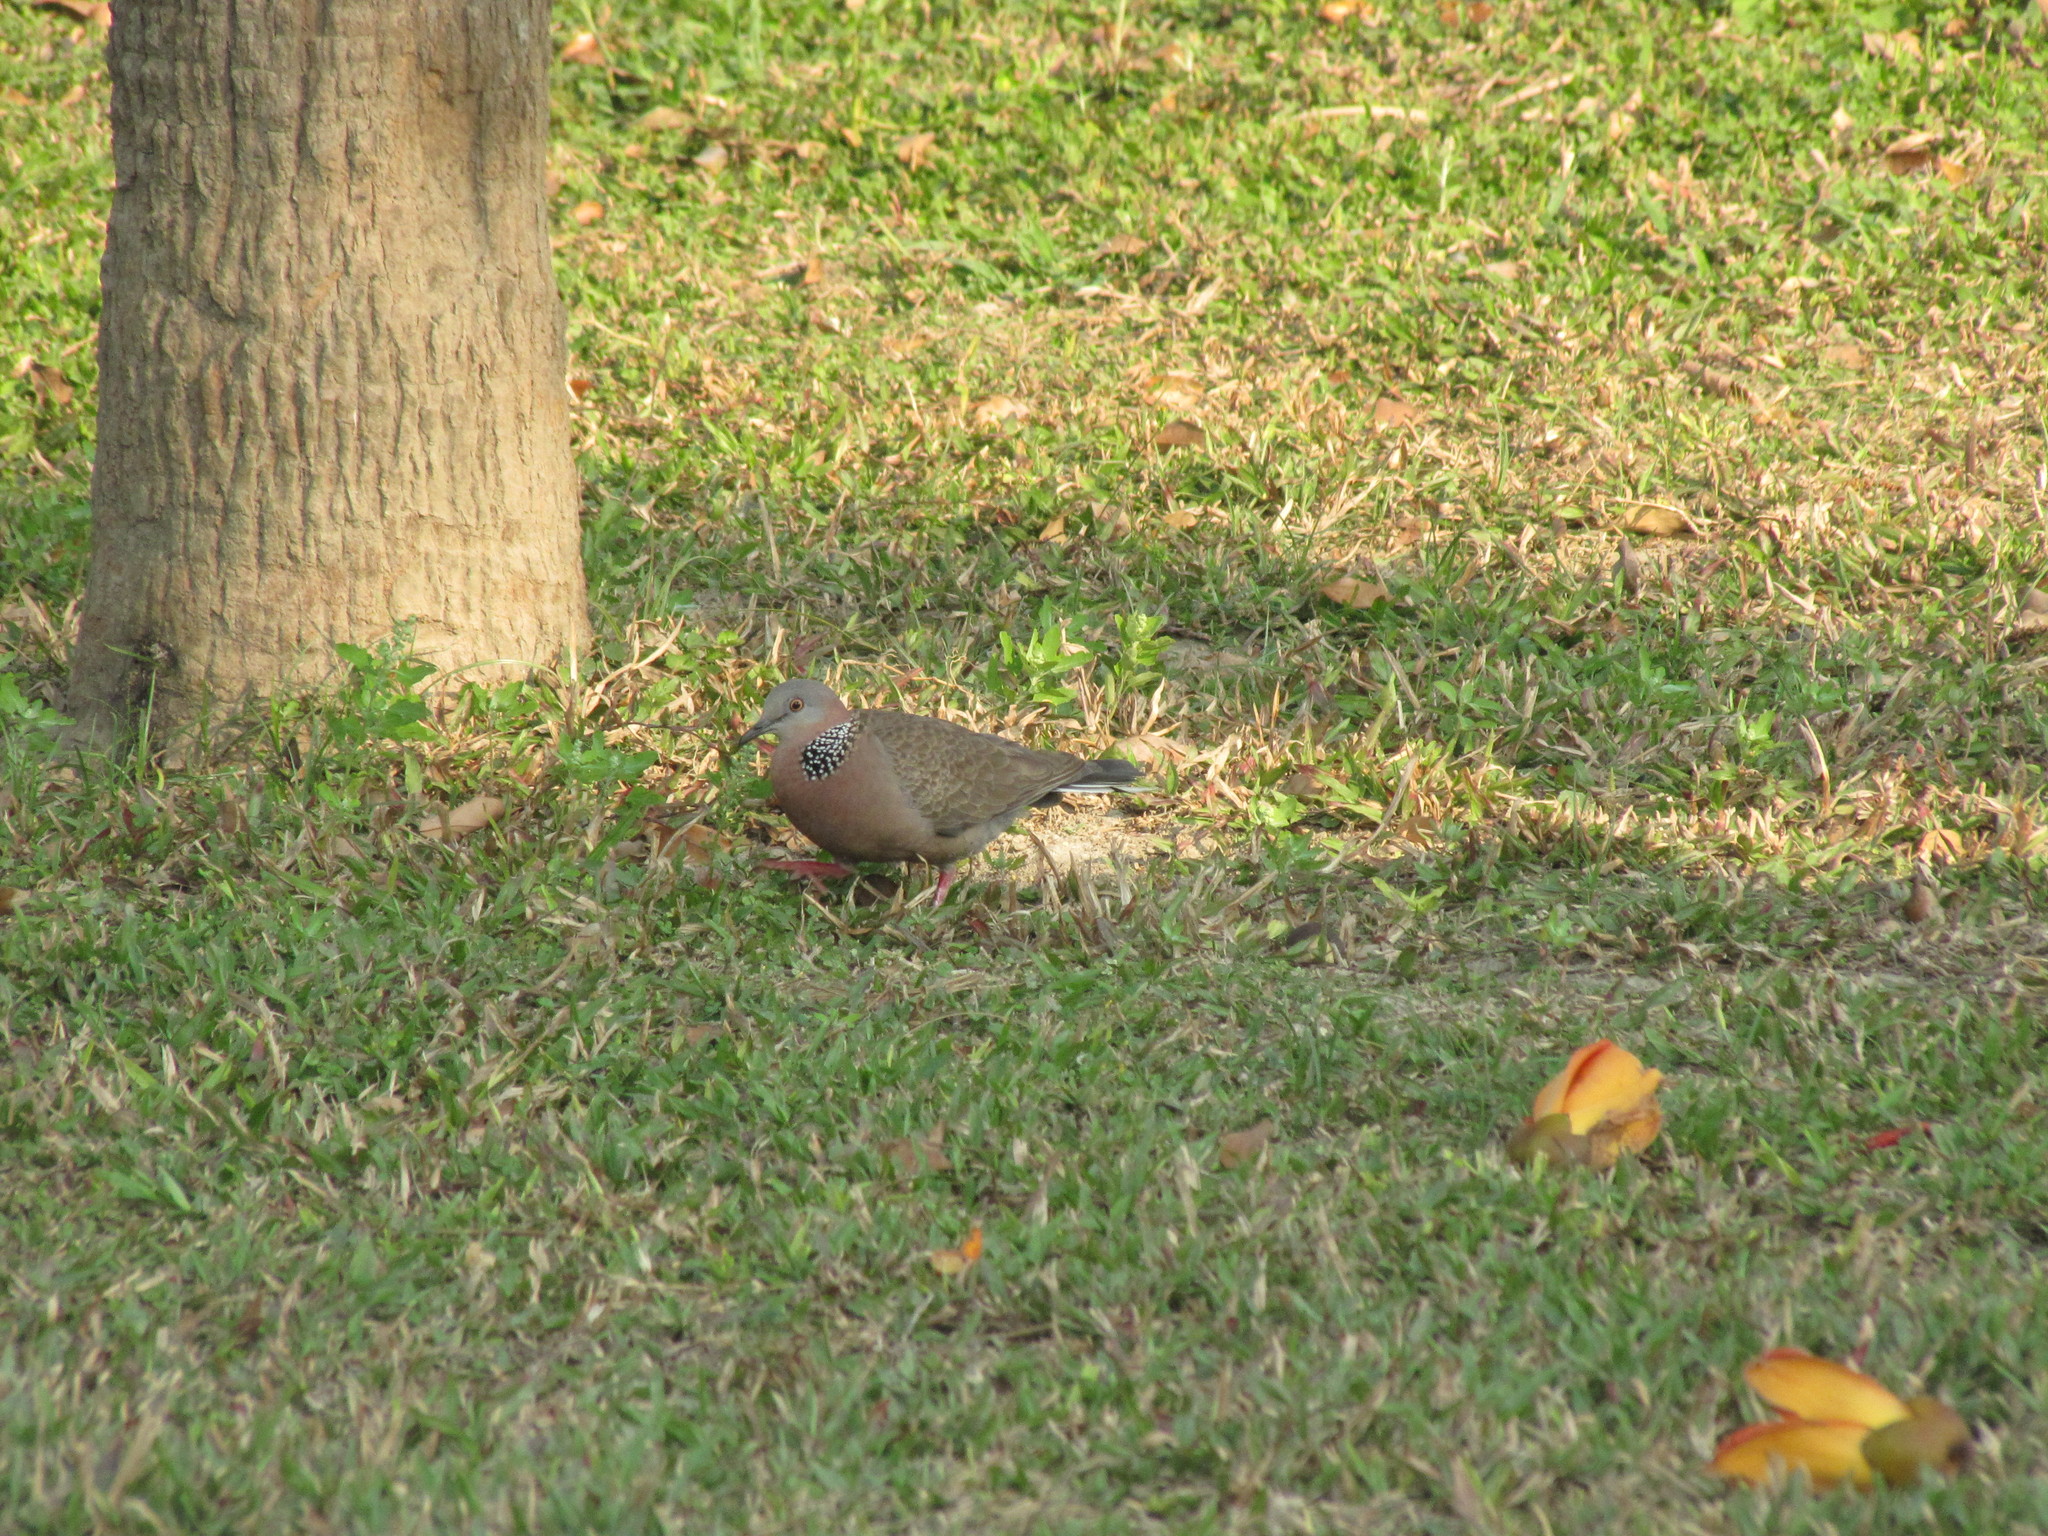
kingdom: Animalia
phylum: Chordata
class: Aves
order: Columbiformes
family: Columbidae
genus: Spilopelia
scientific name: Spilopelia chinensis
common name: Spotted dove
